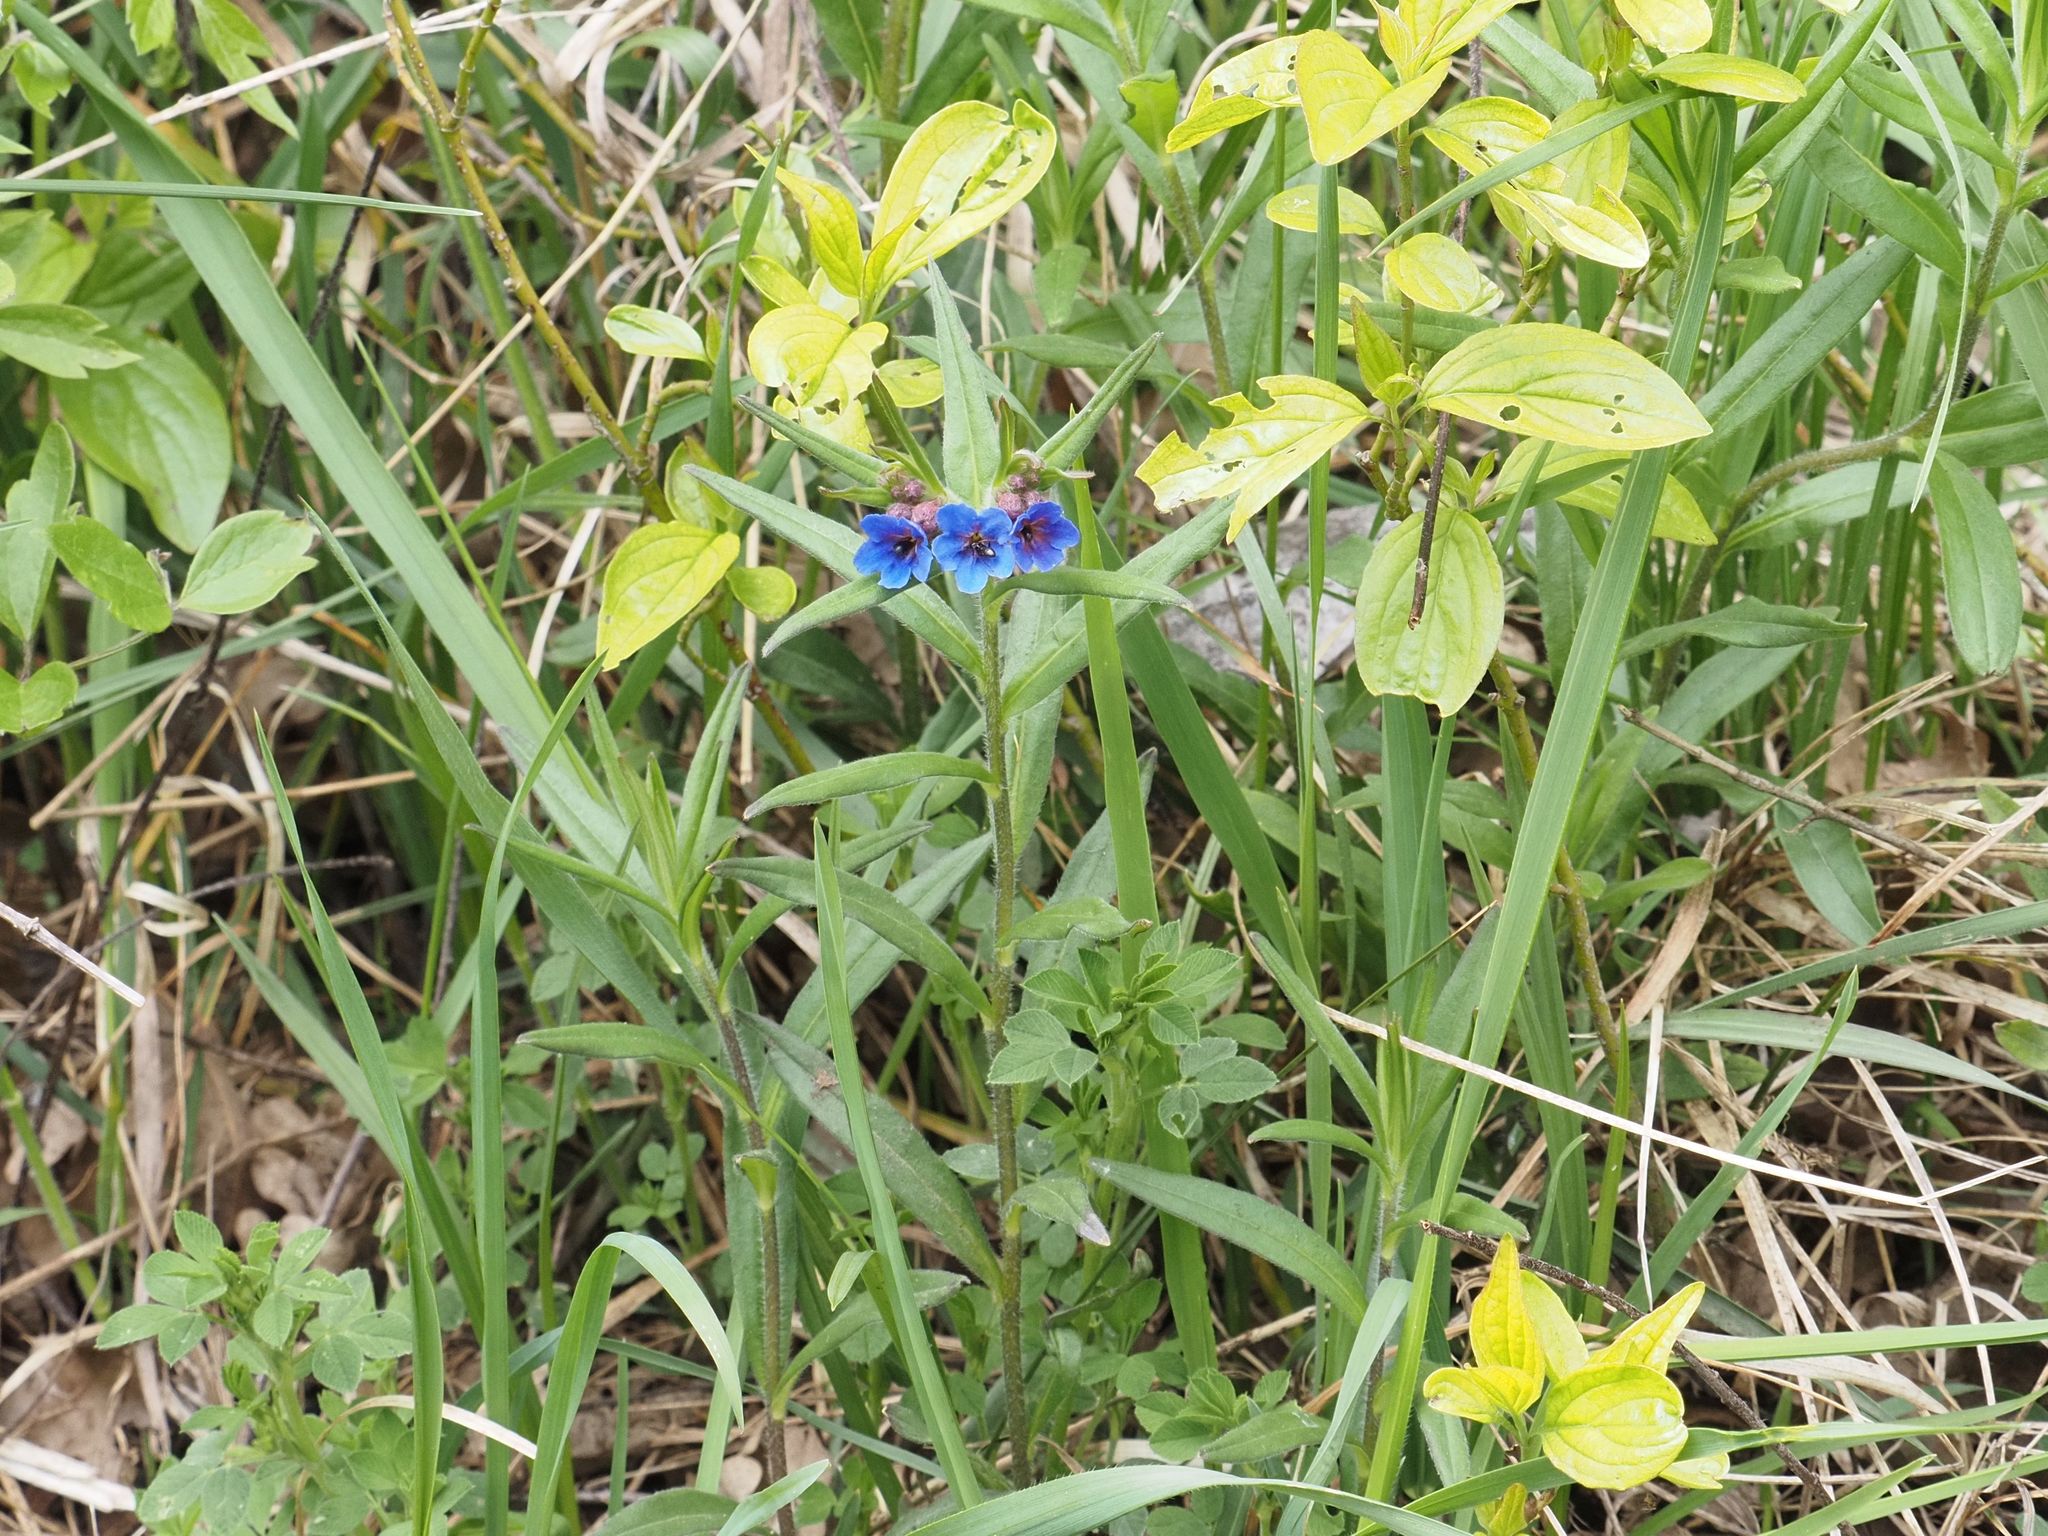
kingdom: Plantae
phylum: Tracheophyta
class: Magnoliopsida
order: Boraginales
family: Boraginaceae
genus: Aegonychon
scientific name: Aegonychon purpurocaeruleum
